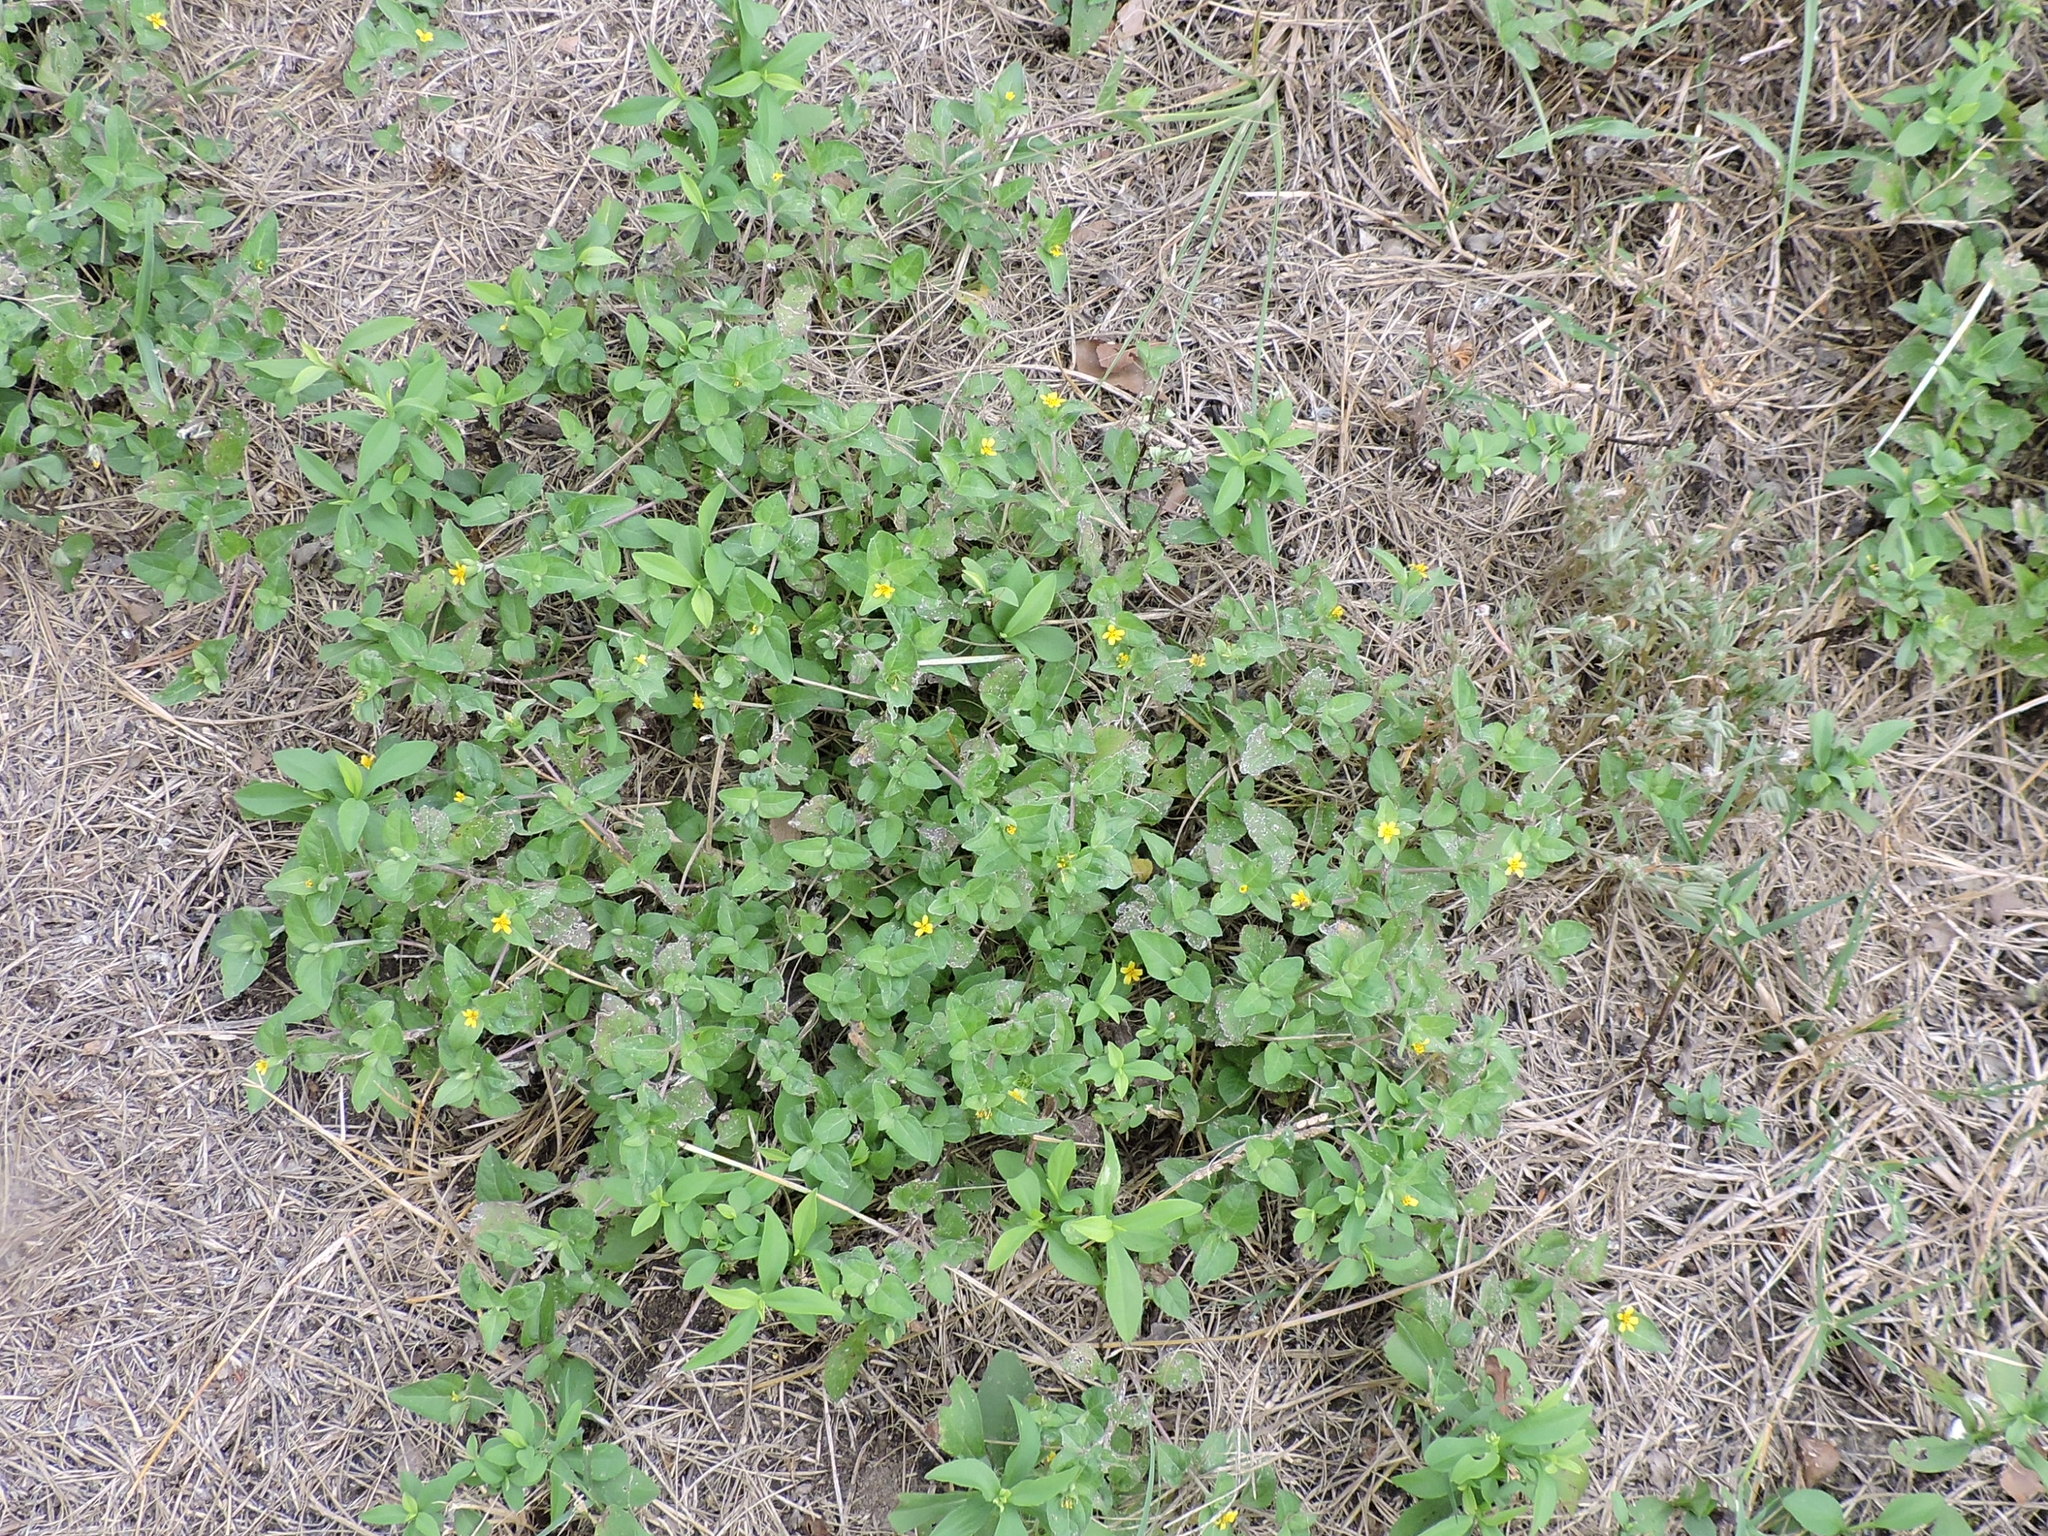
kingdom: Plantae
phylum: Tracheophyta
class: Magnoliopsida
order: Asterales
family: Asteraceae
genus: Calyptocarpus
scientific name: Calyptocarpus vialis
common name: Straggler daisy
